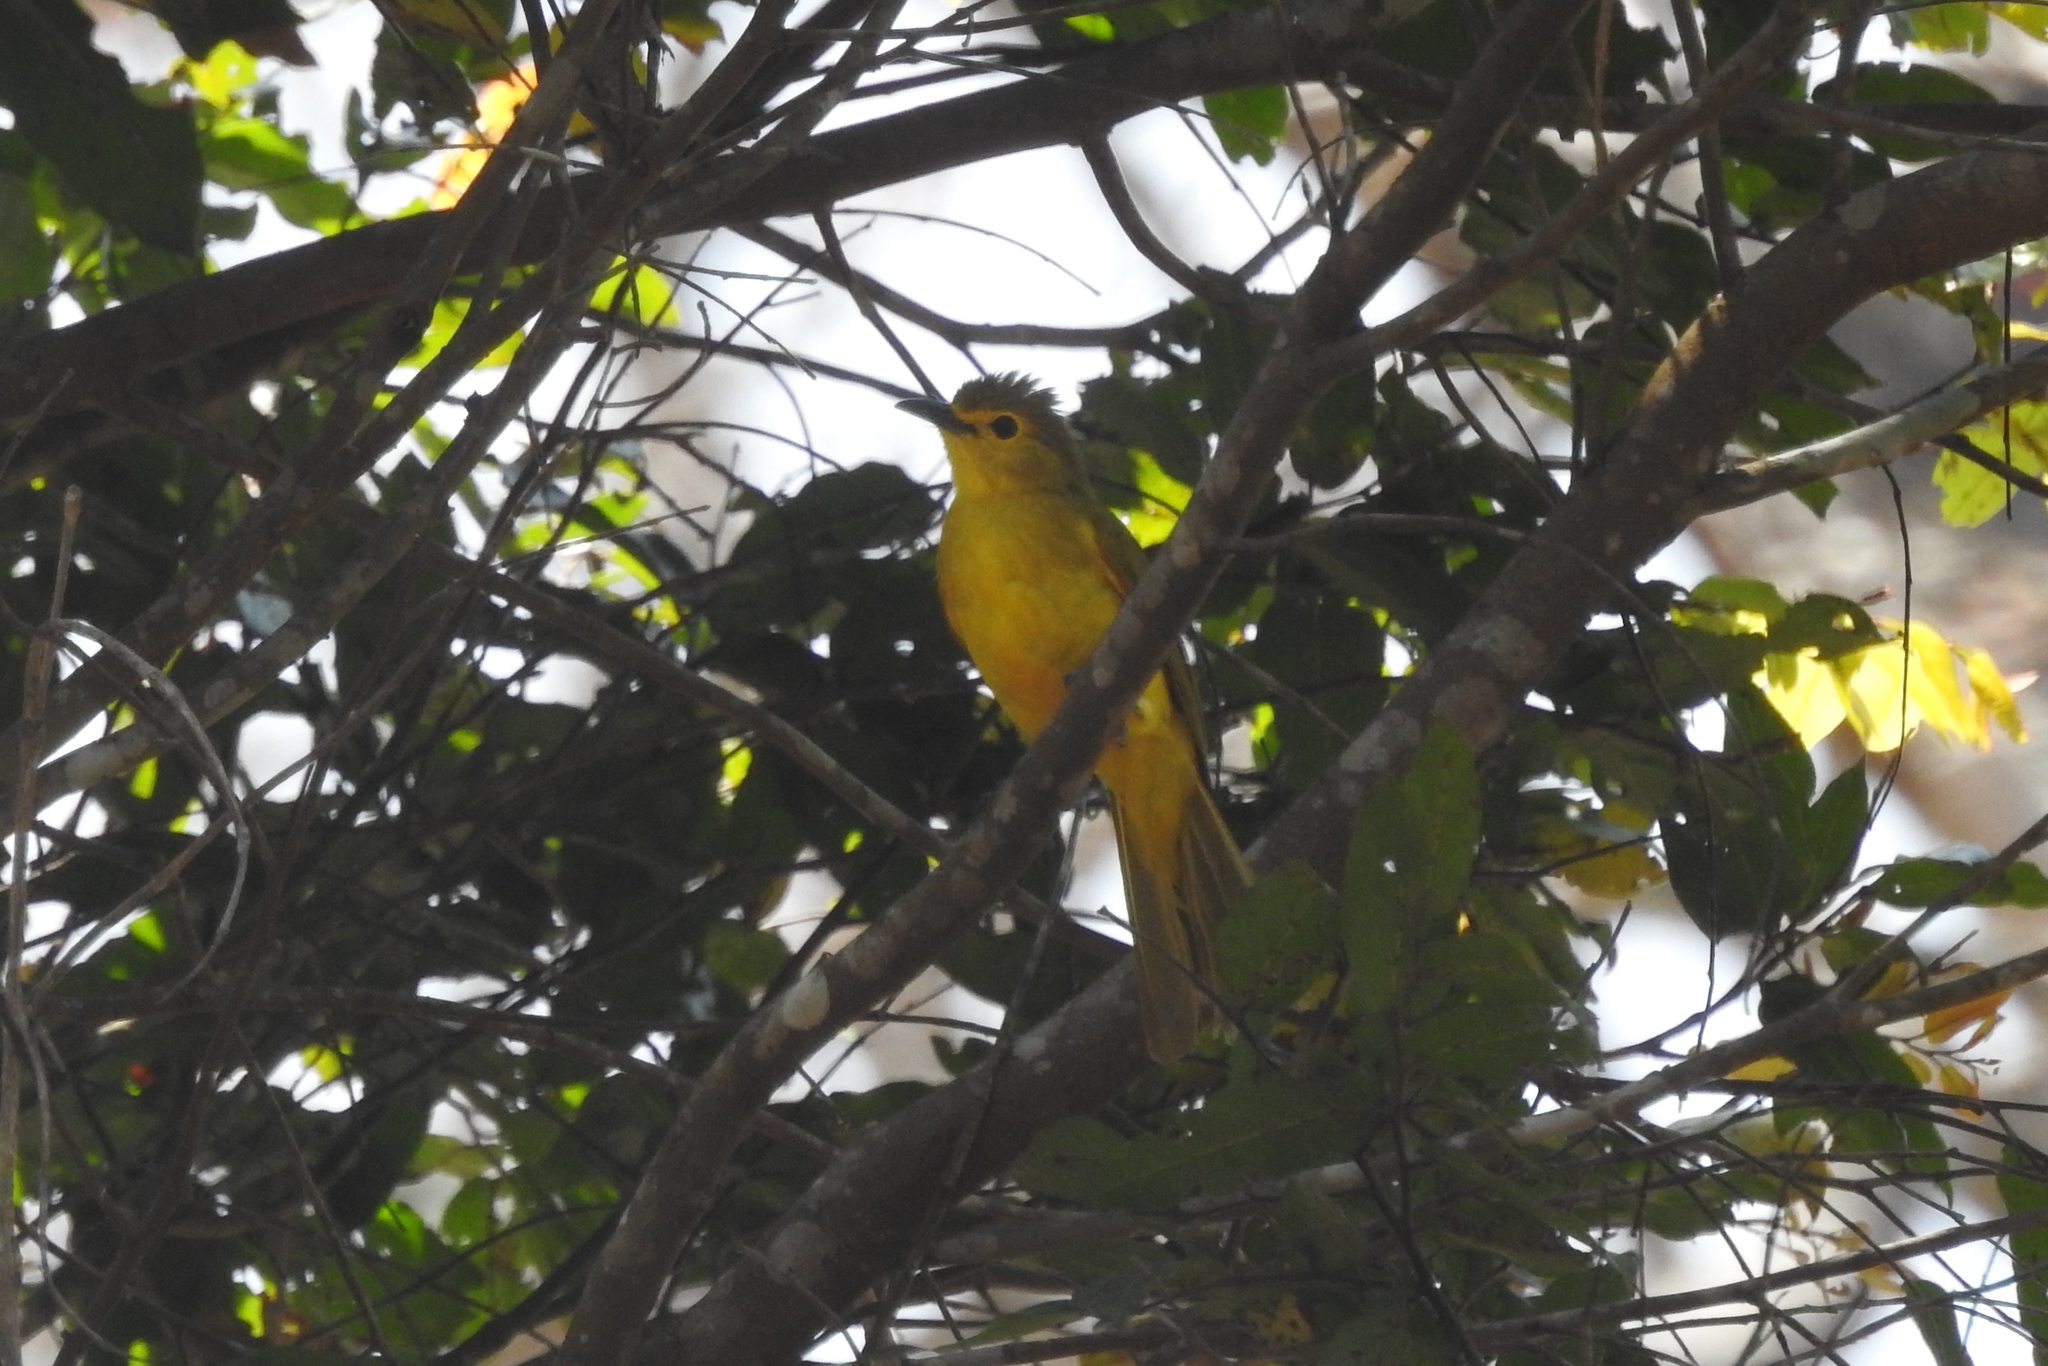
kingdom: Animalia
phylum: Chordata
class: Aves
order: Passeriformes
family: Pycnonotidae
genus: Acritillas
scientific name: Acritillas indica
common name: Yellow-browed bulbul
